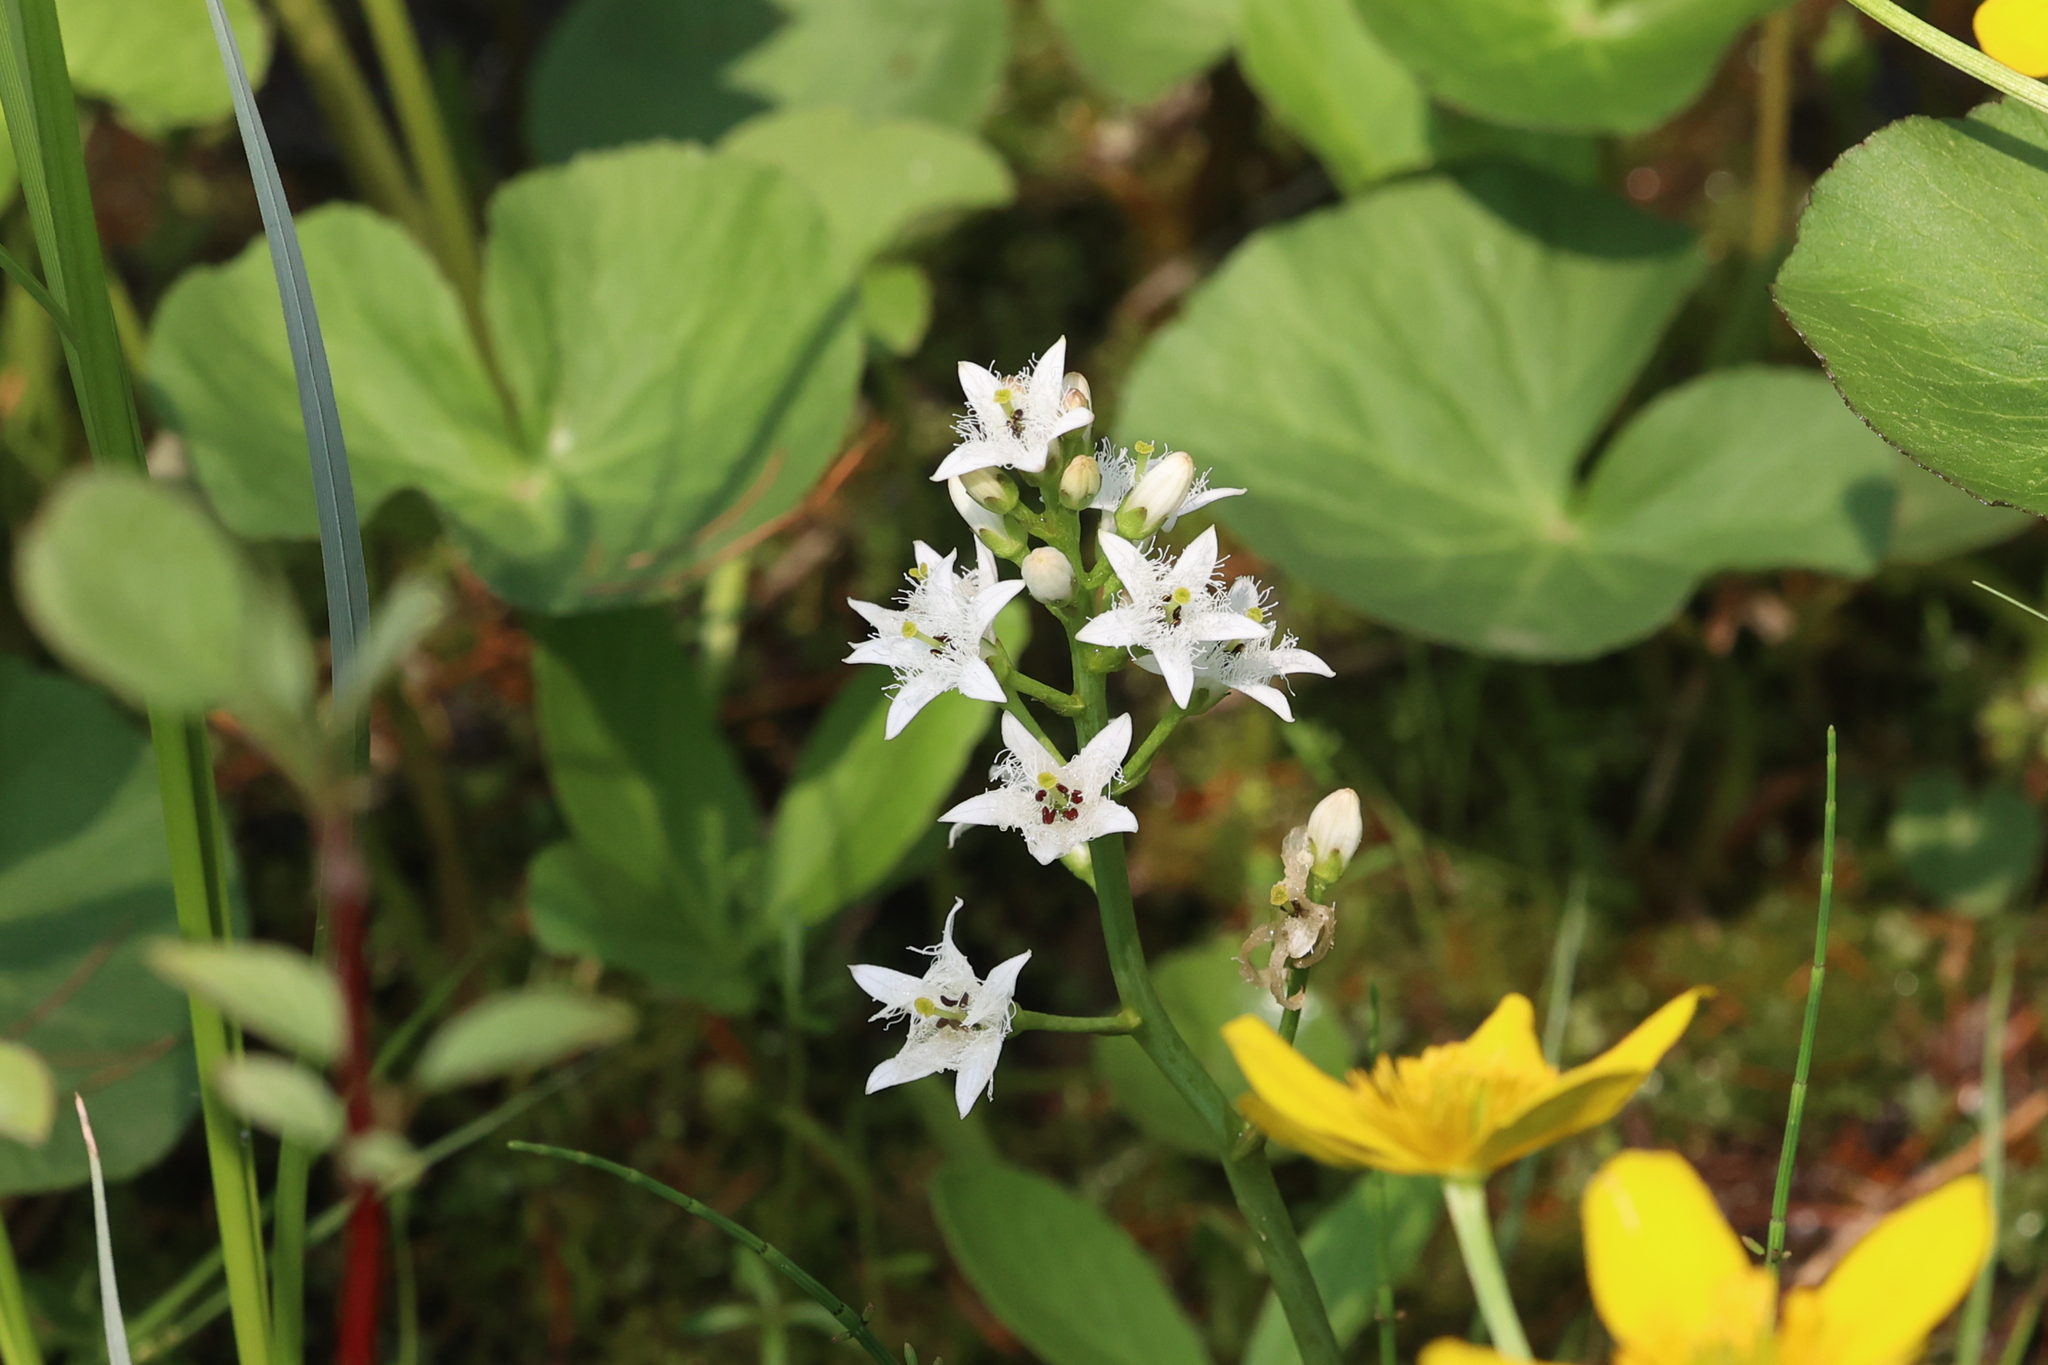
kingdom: Plantae
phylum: Tracheophyta
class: Magnoliopsida
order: Asterales
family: Menyanthaceae
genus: Menyanthes
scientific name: Menyanthes trifoliata
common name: Bogbean
